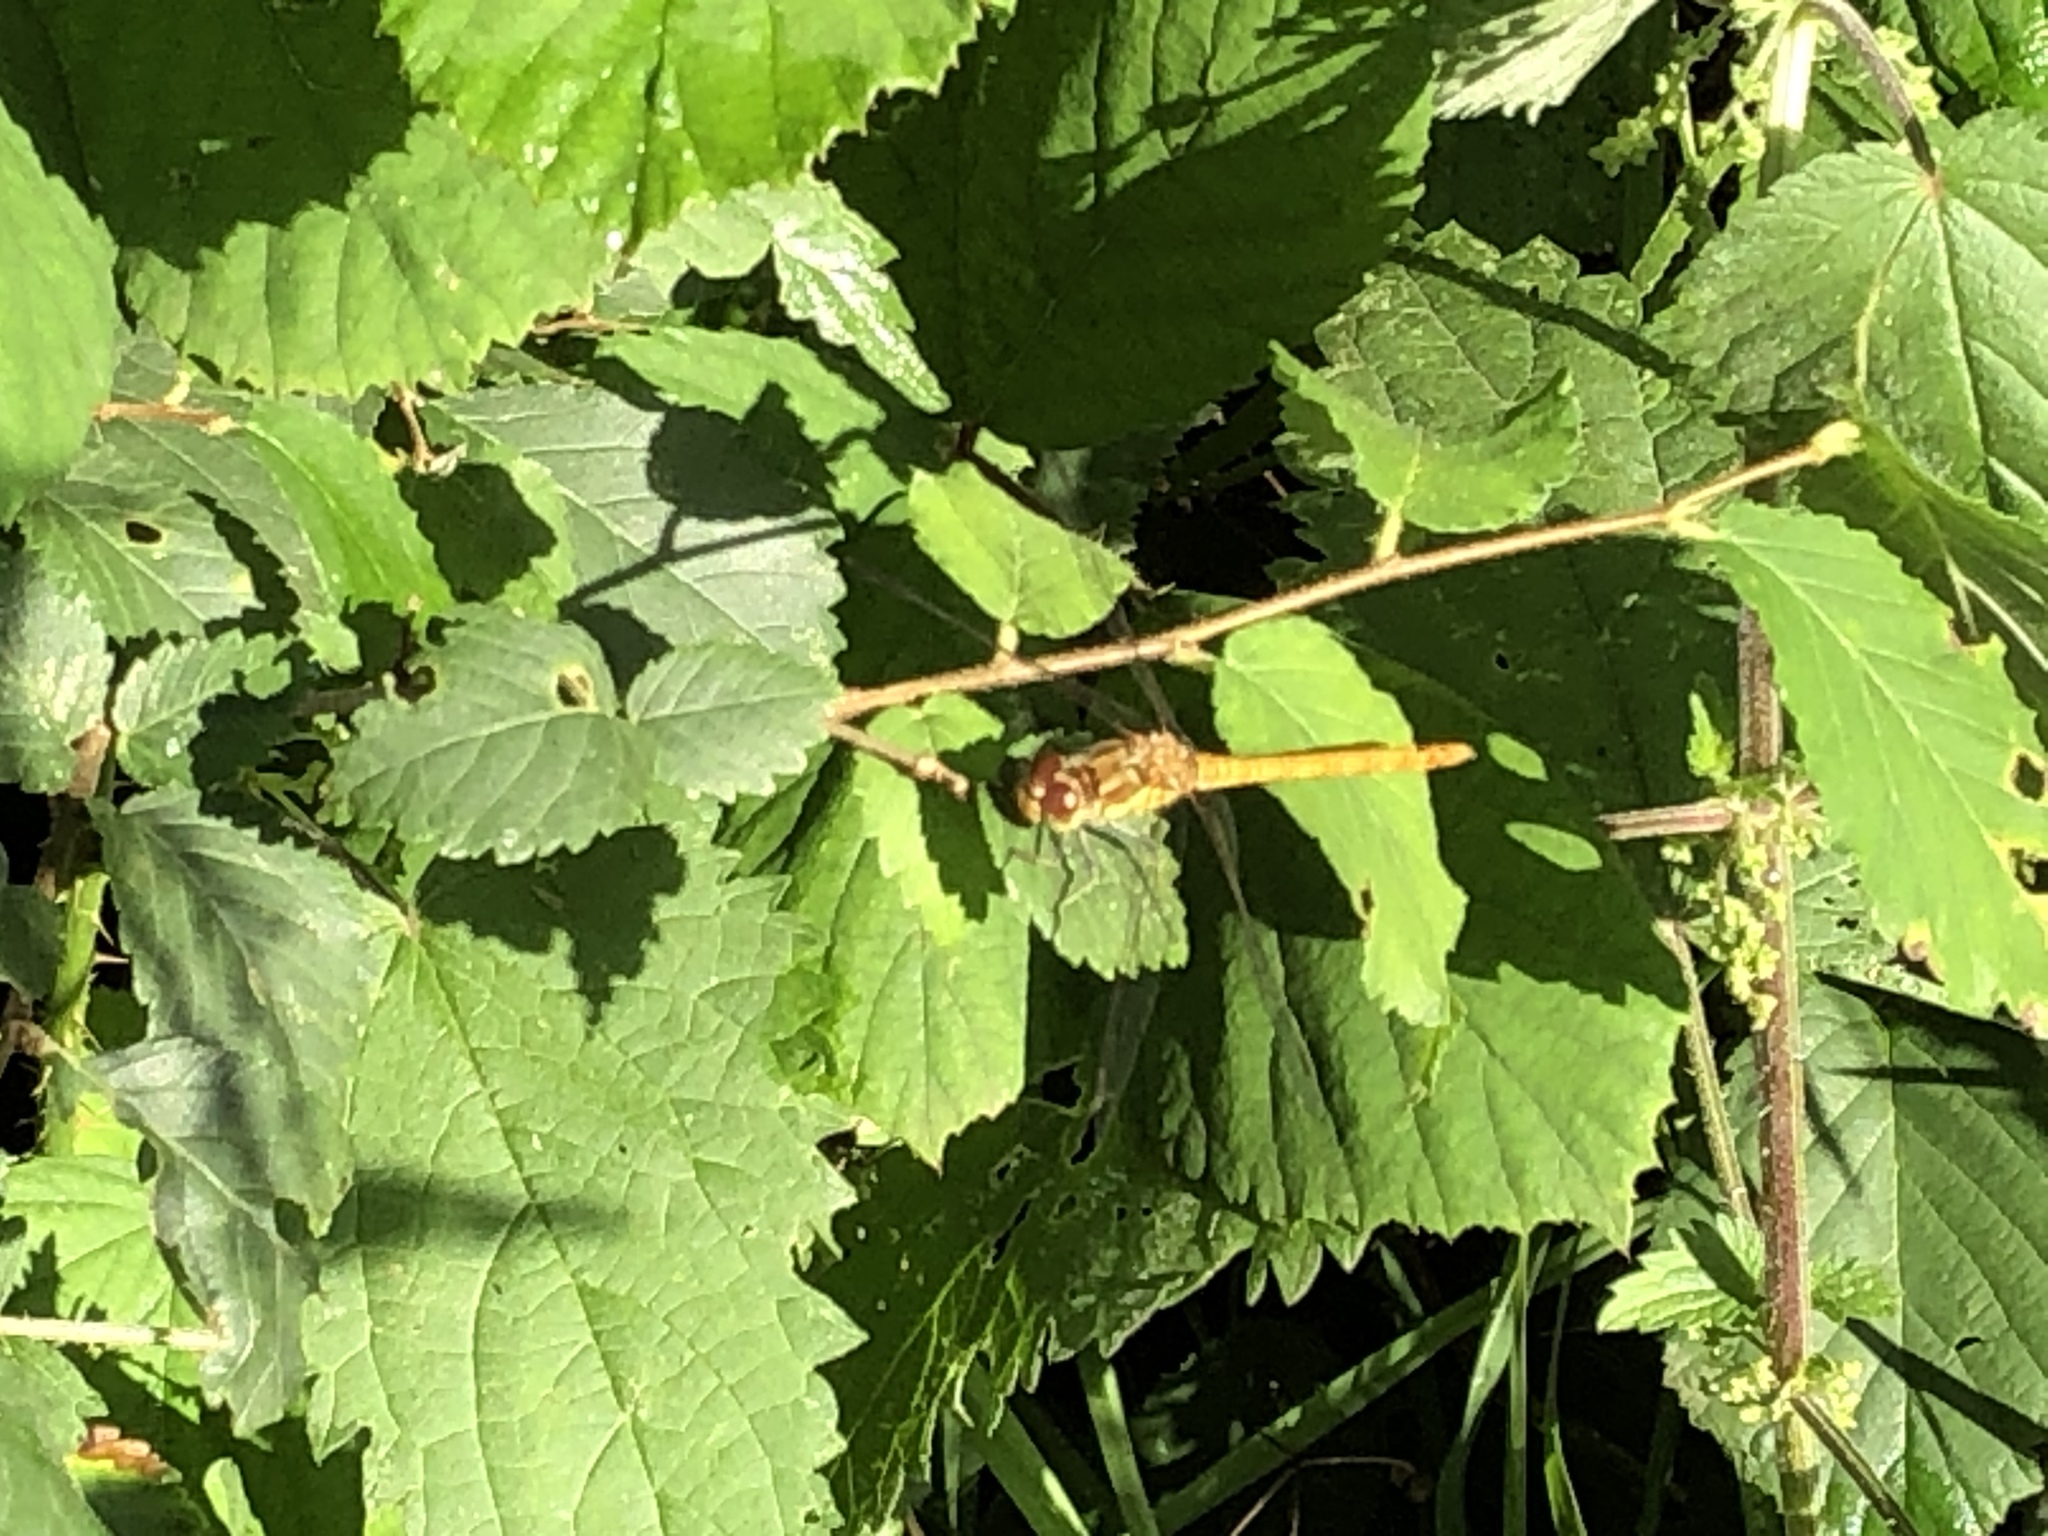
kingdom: Animalia
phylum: Arthropoda
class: Insecta
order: Odonata
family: Libellulidae
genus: Sympetrum
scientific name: Sympetrum striolatum
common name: Common darter
